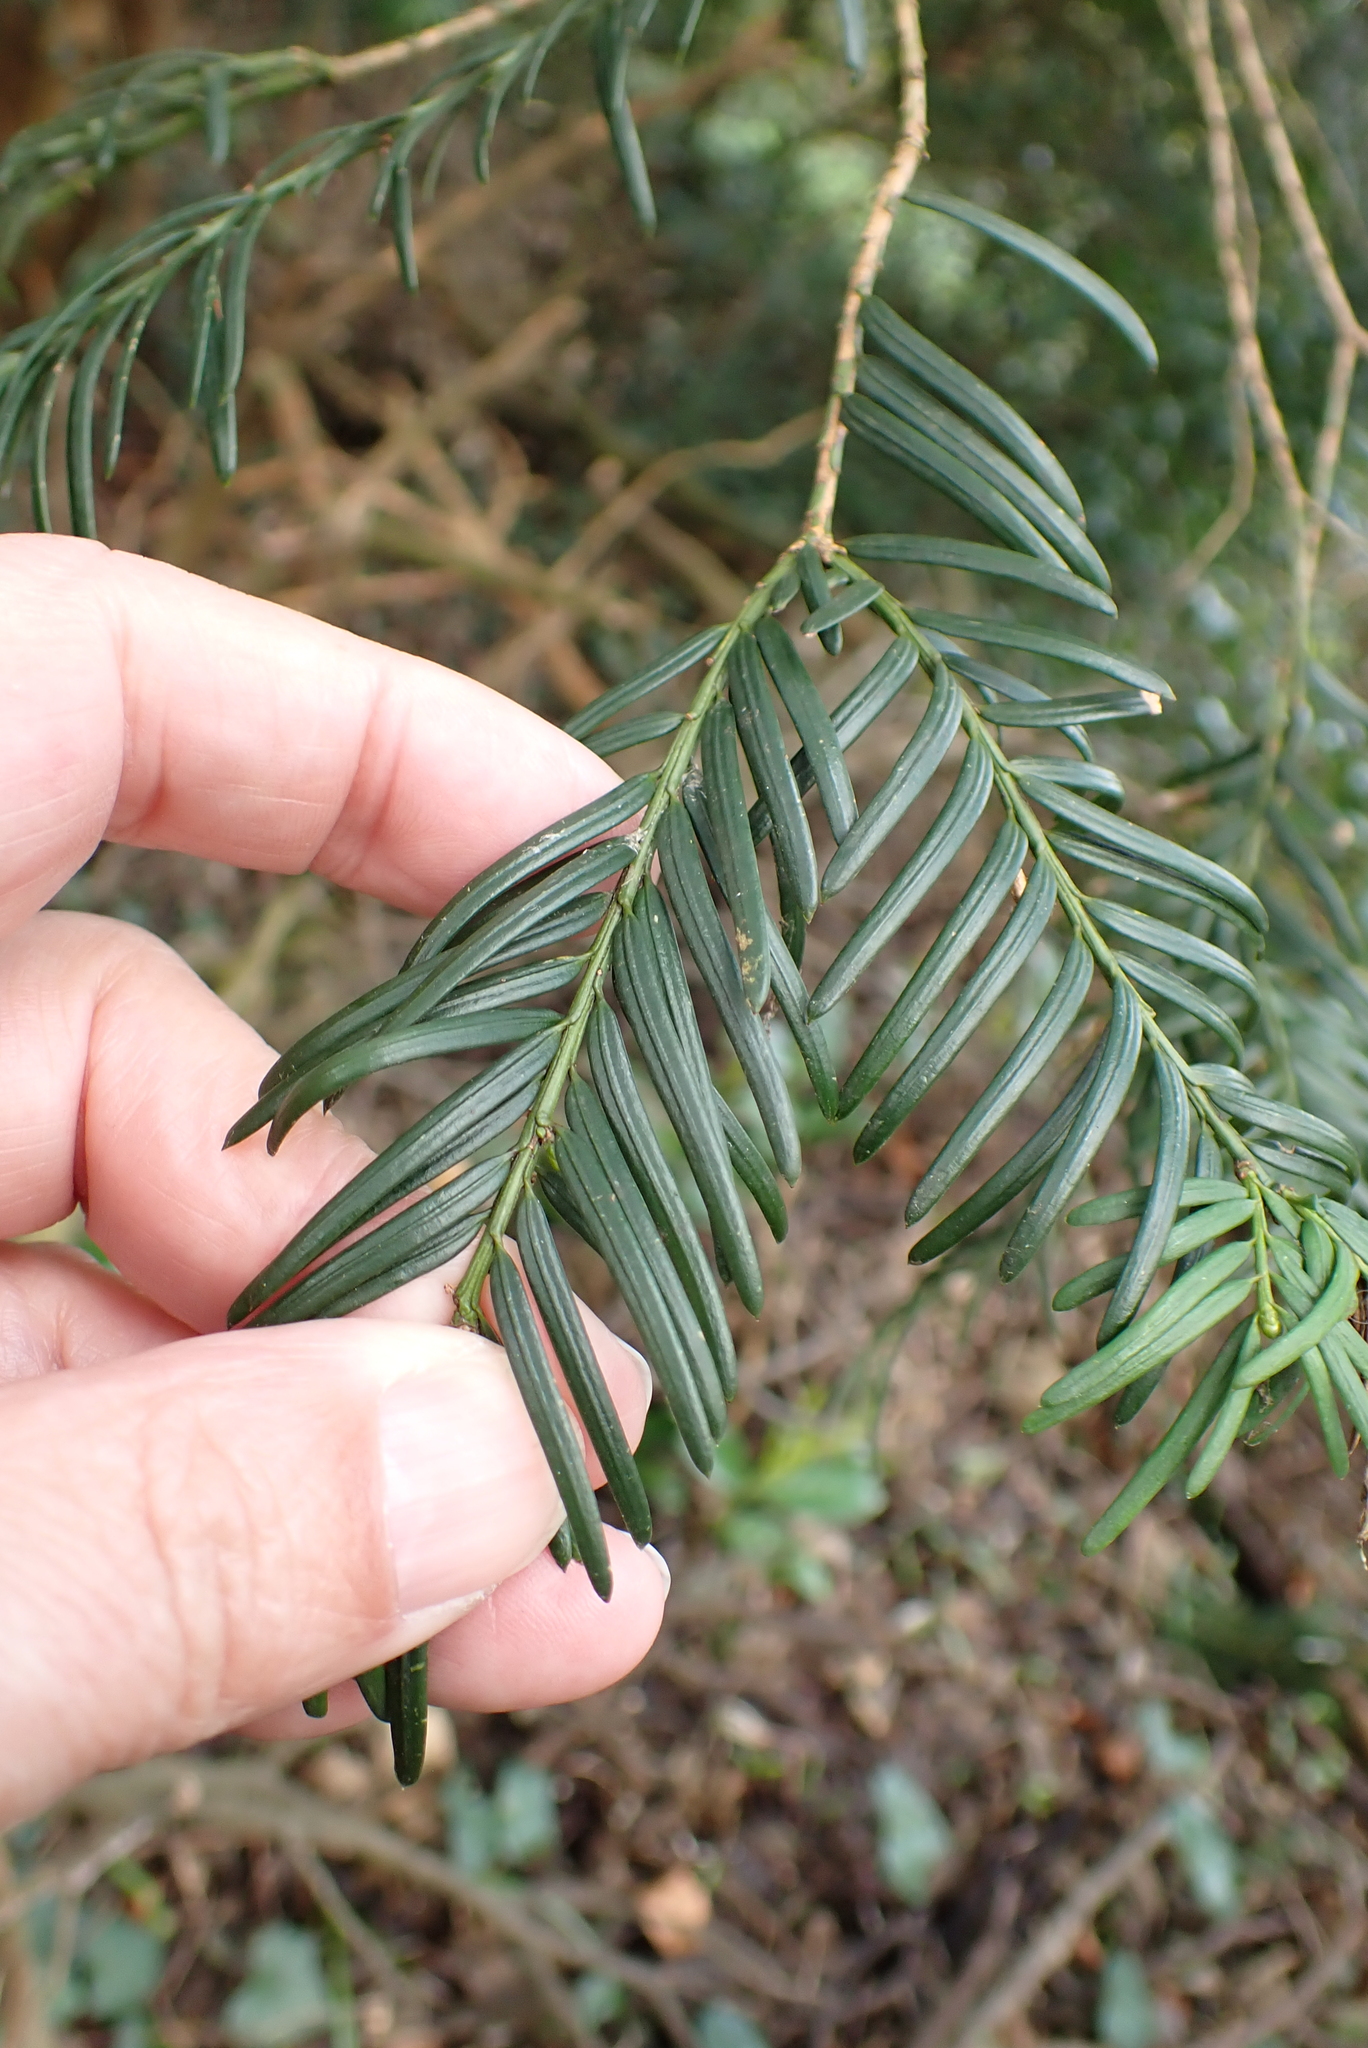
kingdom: Plantae
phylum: Tracheophyta
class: Pinopsida
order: Pinales
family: Taxaceae
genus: Taxus
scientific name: Taxus baccata
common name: Yew
